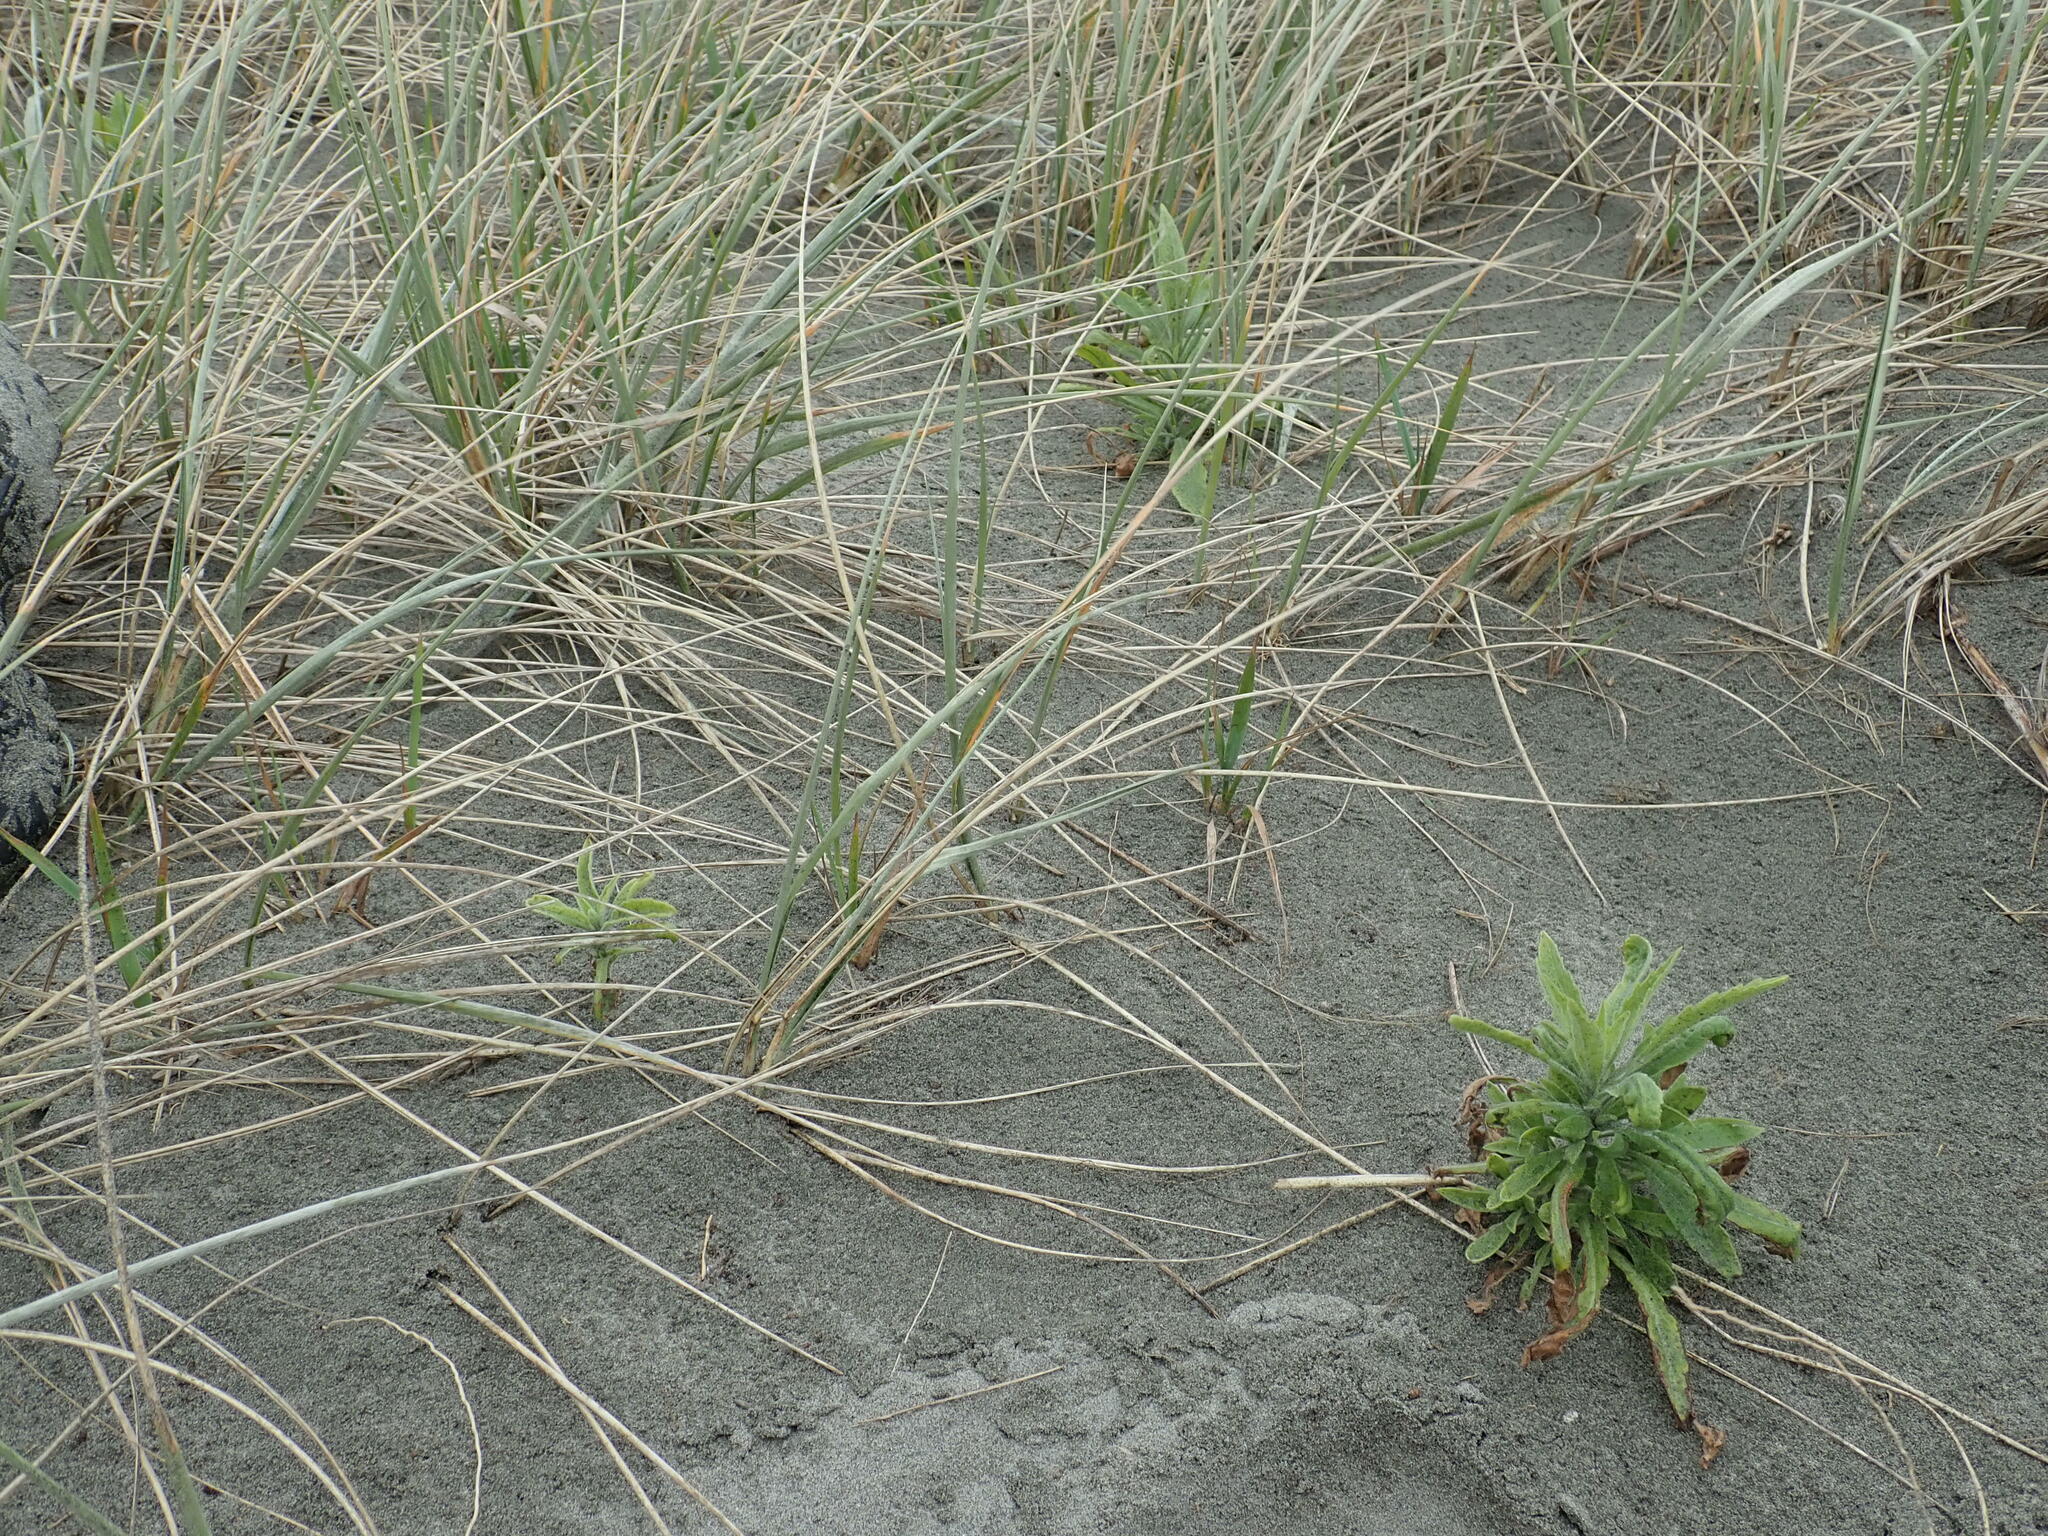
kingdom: Plantae
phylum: Tracheophyta
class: Magnoliopsida
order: Asterales
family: Asteraceae
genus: Erigeron
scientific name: Erigeron sumatrensis
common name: Daisy
